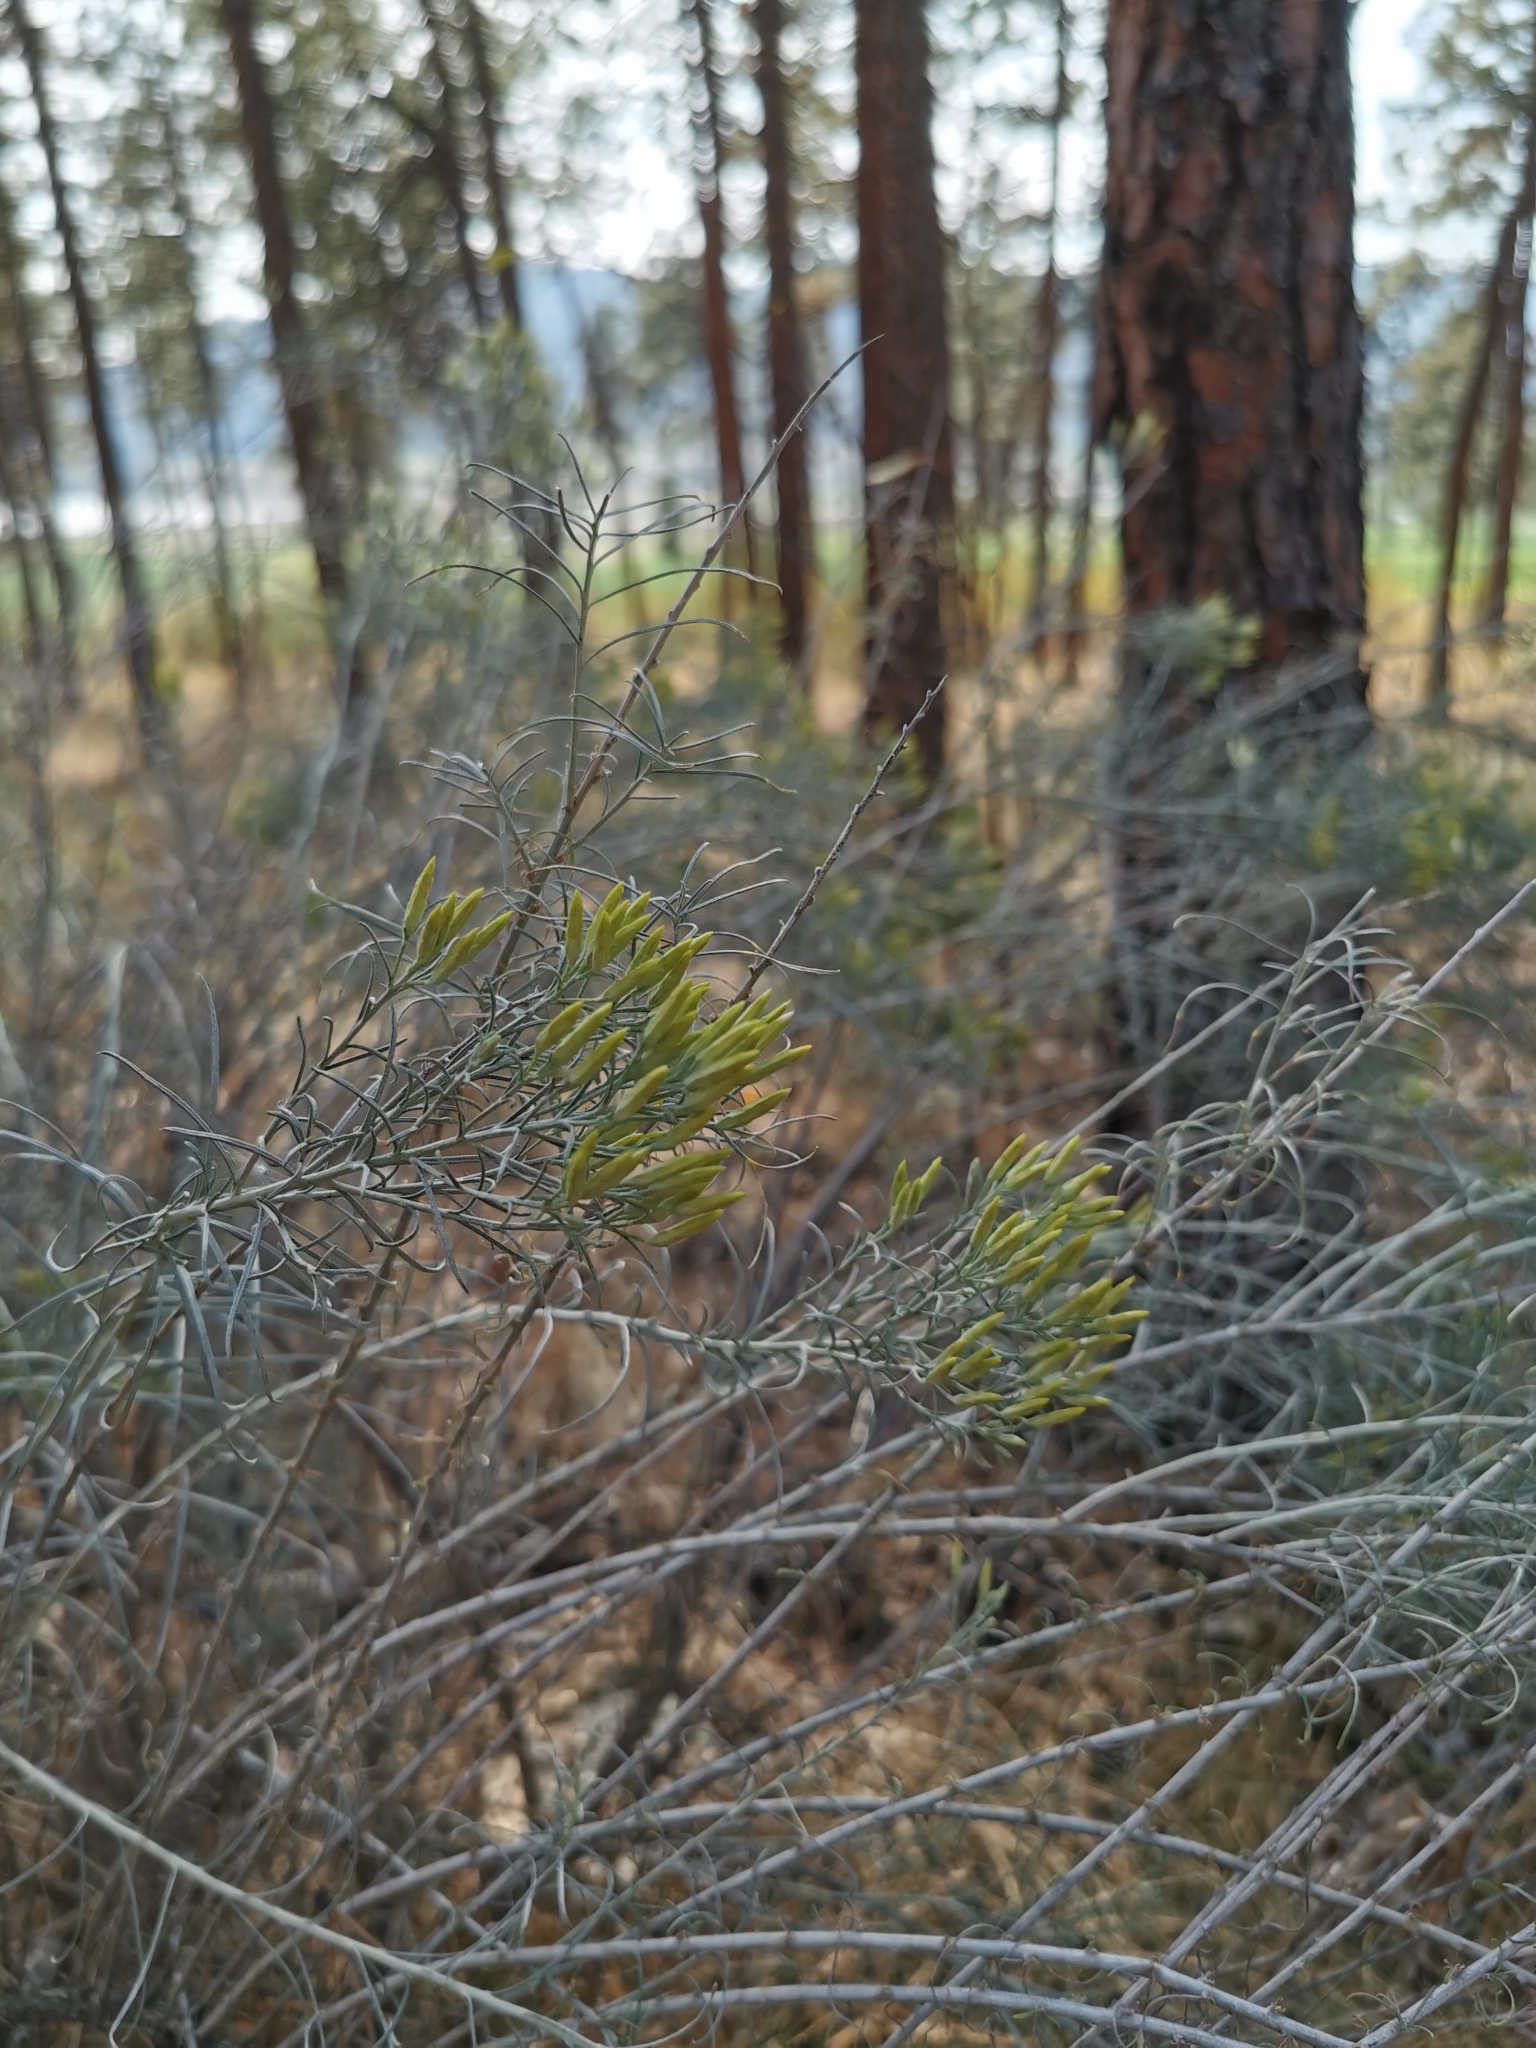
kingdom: Plantae
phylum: Tracheophyta
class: Magnoliopsida
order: Asterales
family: Asteraceae
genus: Ericameria
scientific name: Ericameria nauseosa
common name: Rubber rabbitbrush
